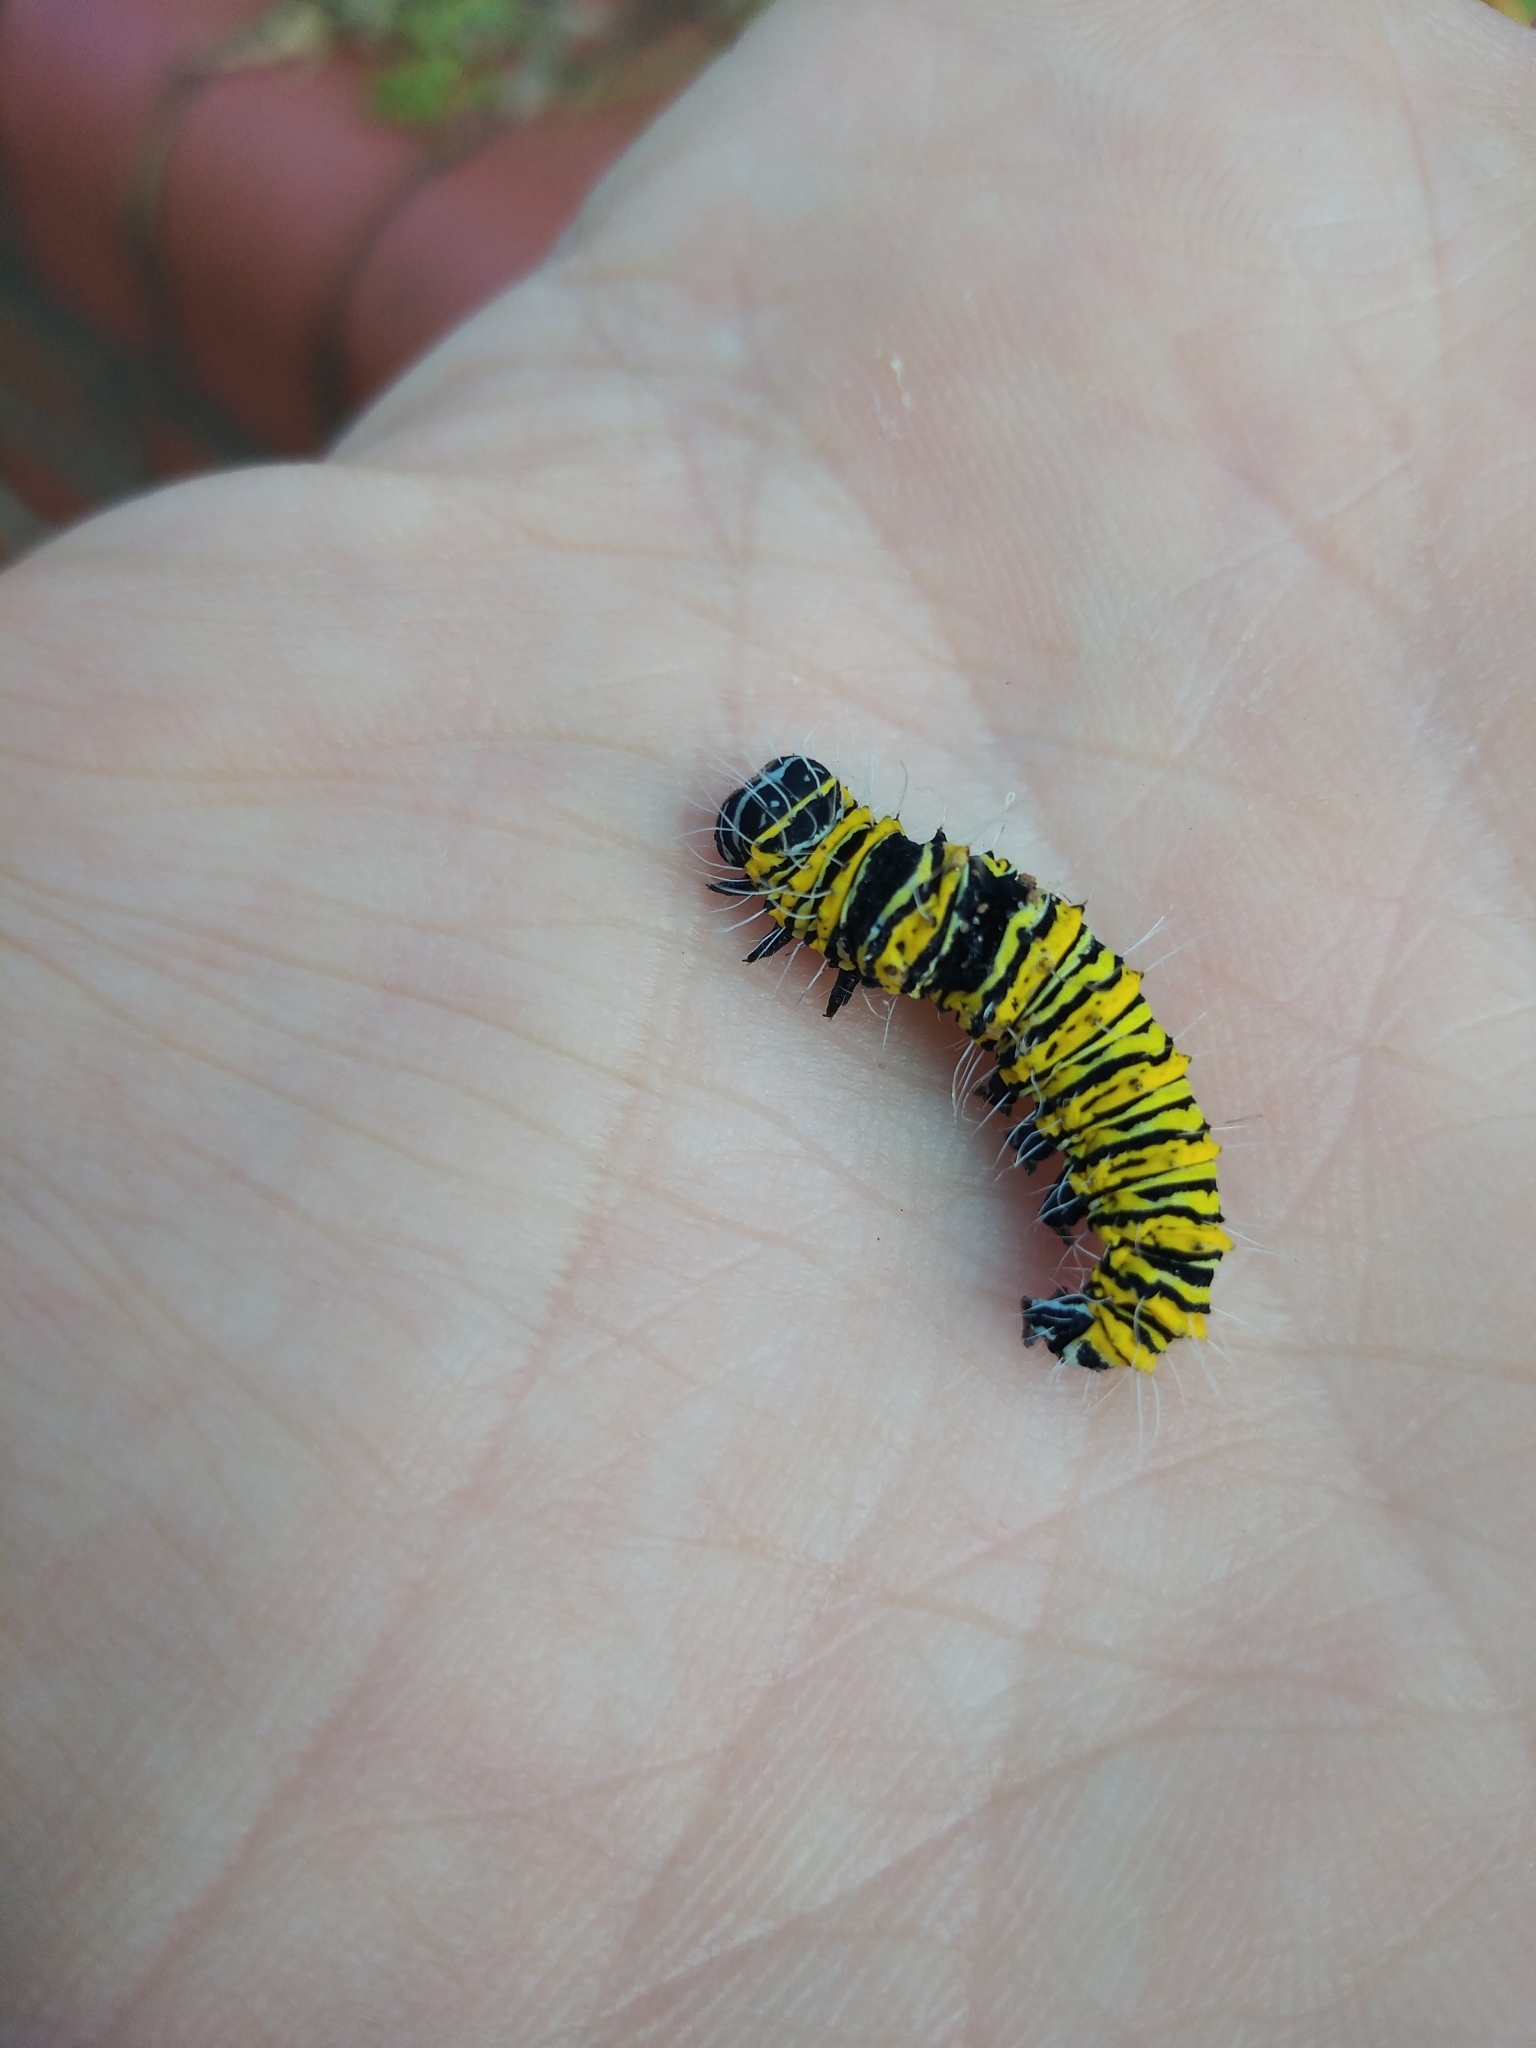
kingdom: Animalia
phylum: Arthropoda
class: Insecta
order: Lepidoptera
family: Erebidae
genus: Egybolis
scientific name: Egybolis vaillantina
